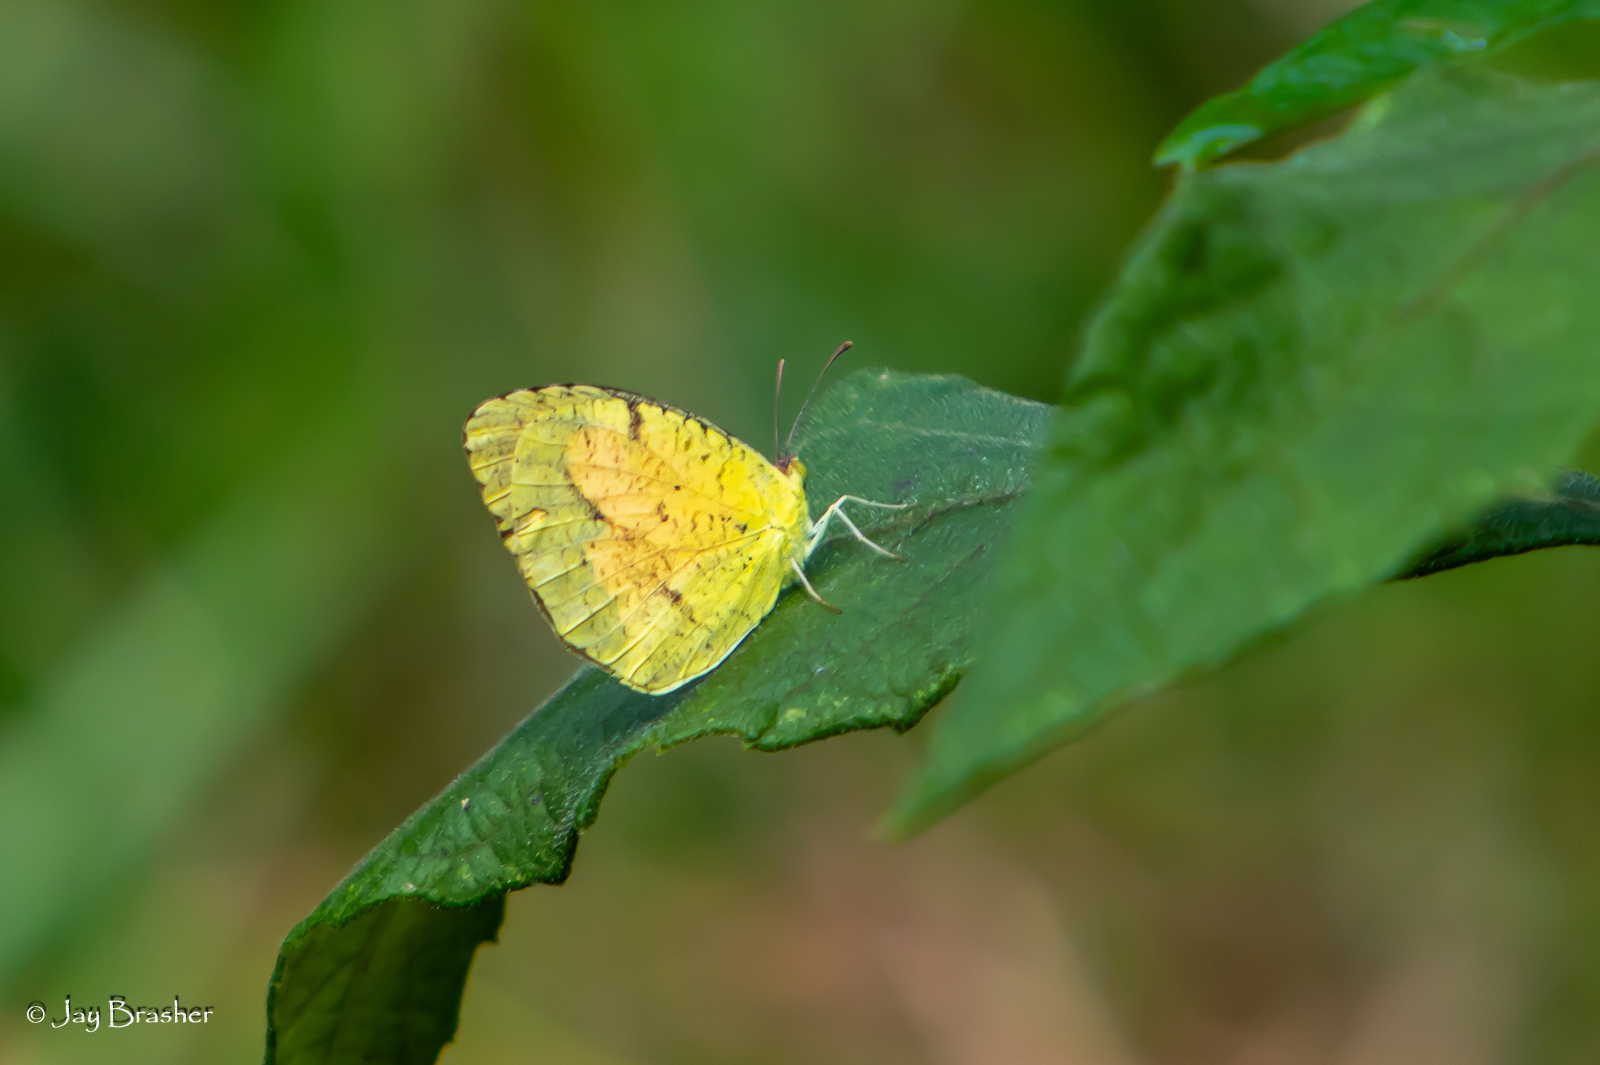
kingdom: Animalia
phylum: Arthropoda
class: Insecta
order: Lepidoptera
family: Pieridae
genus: Abaeis
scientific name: Abaeis nicippe
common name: Sleepy orange
